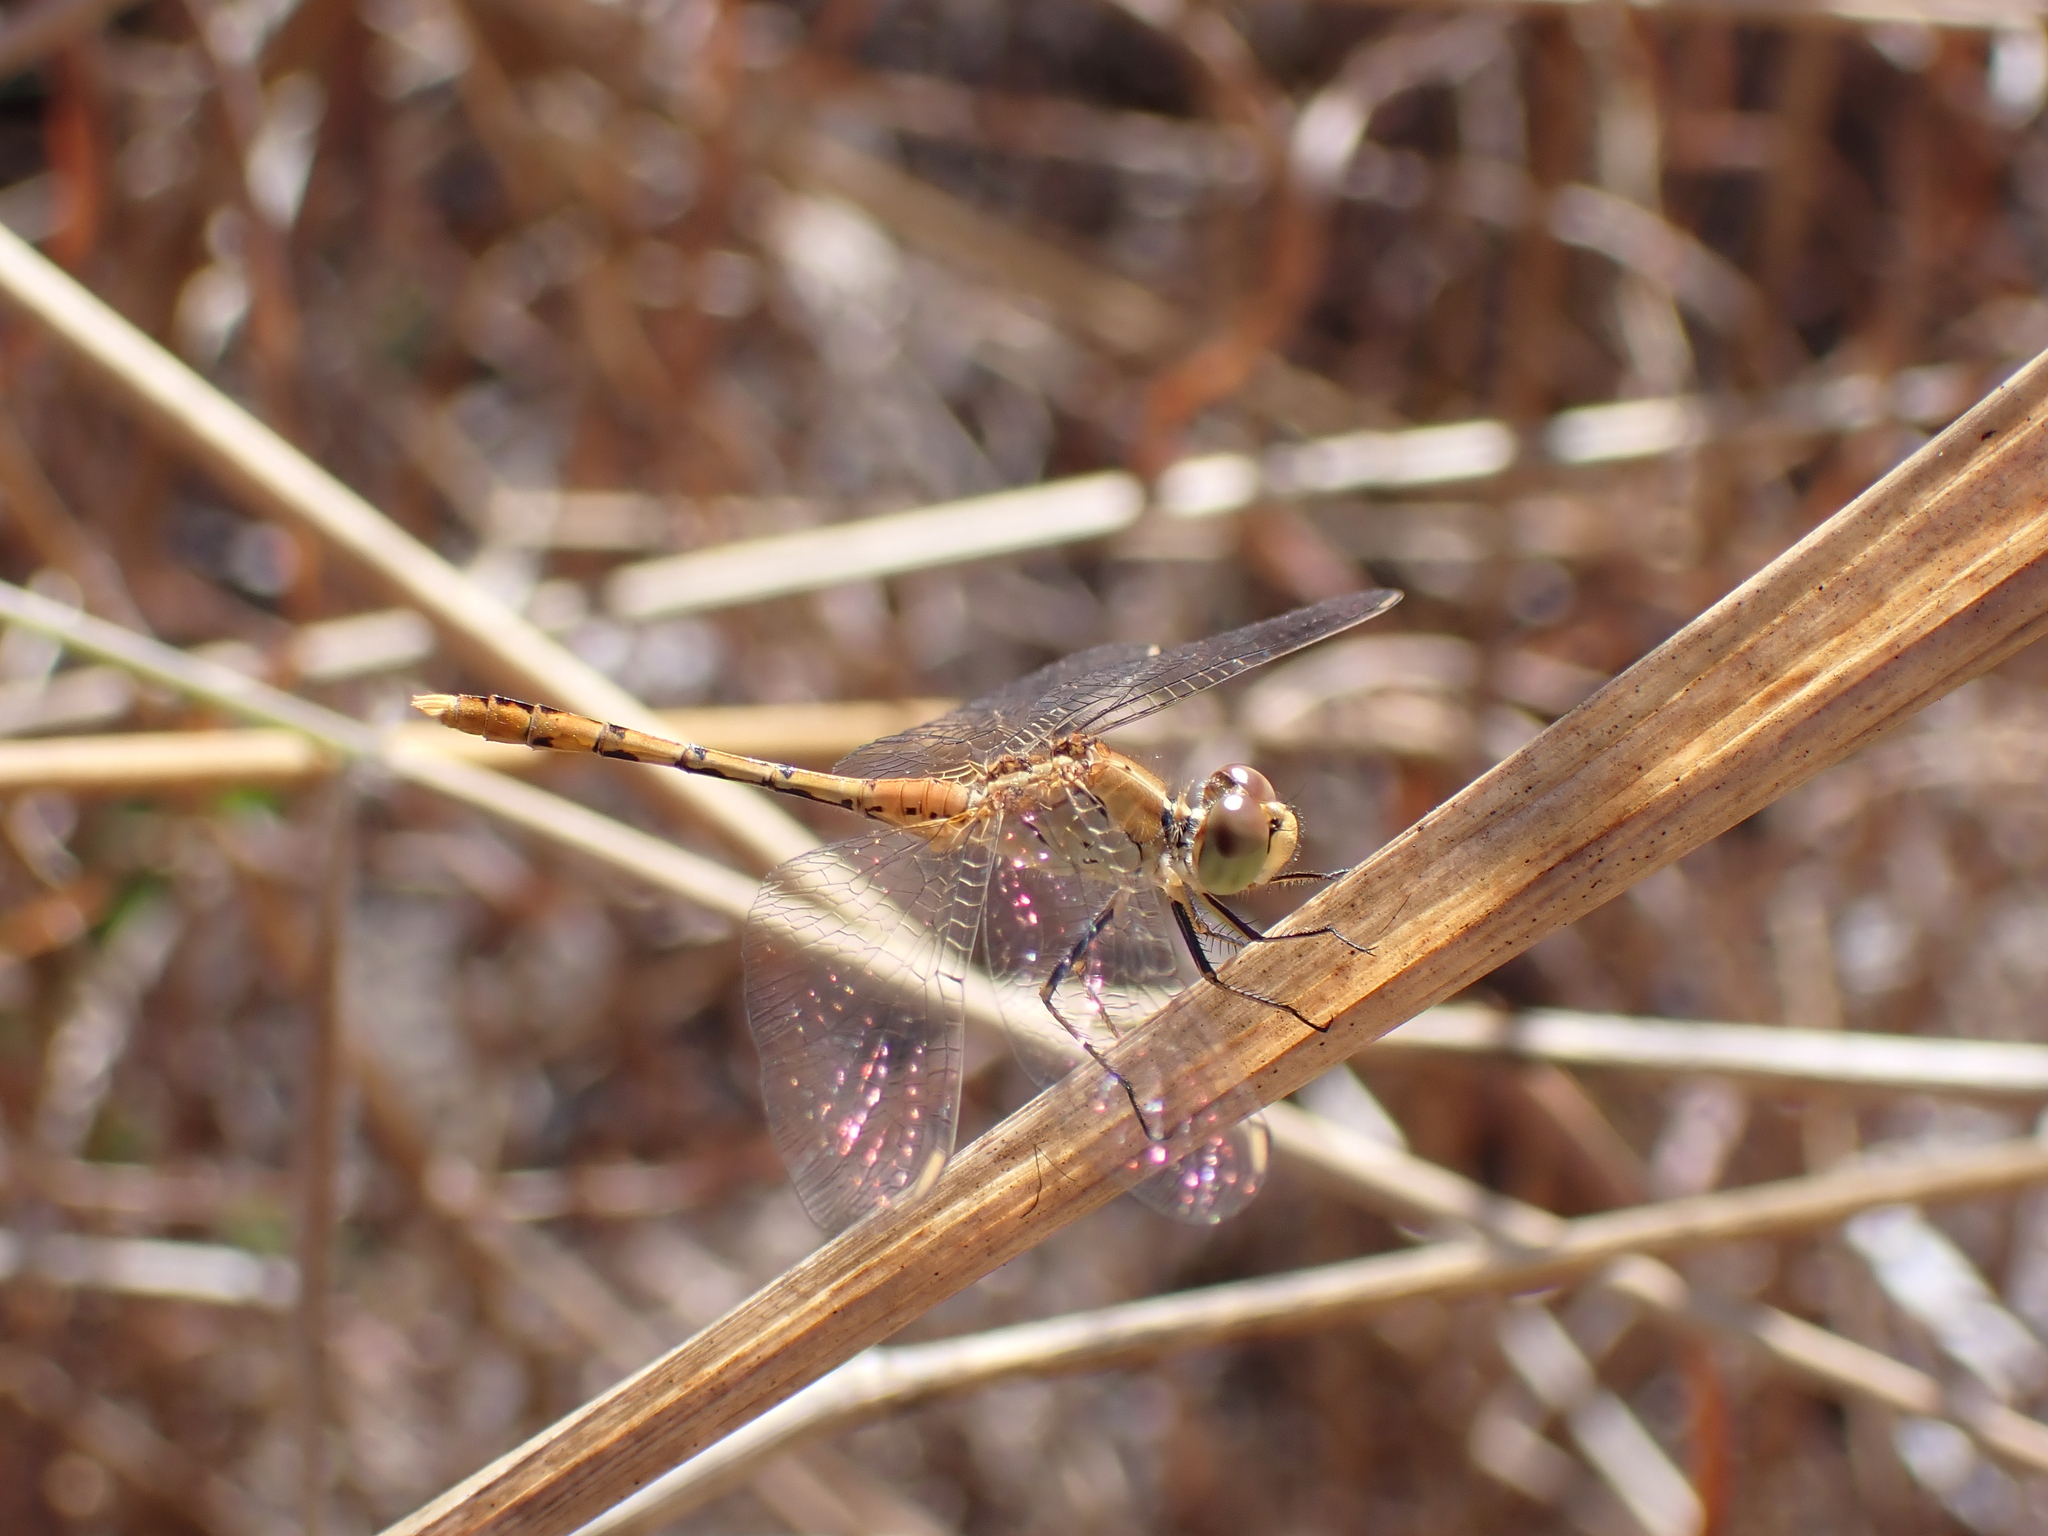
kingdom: Animalia
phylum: Arthropoda
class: Insecta
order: Odonata
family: Libellulidae
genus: Diplacodes
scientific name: Diplacodes bipunctata
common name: Red percher dragonfly
